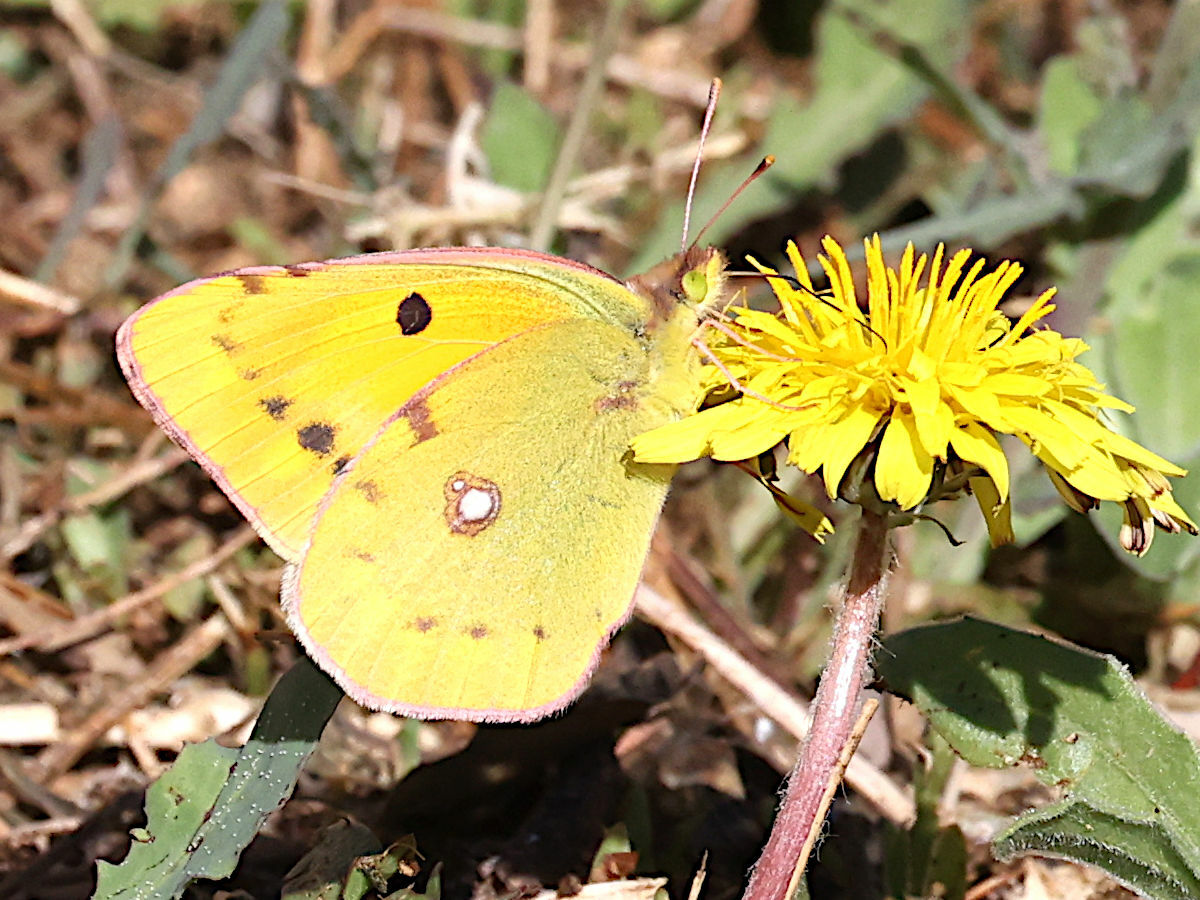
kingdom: Animalia
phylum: Arthropoda
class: Insecta
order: Lepidoptera
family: Pieridae
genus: Colias
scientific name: Colias croceus
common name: Clouded yellow
